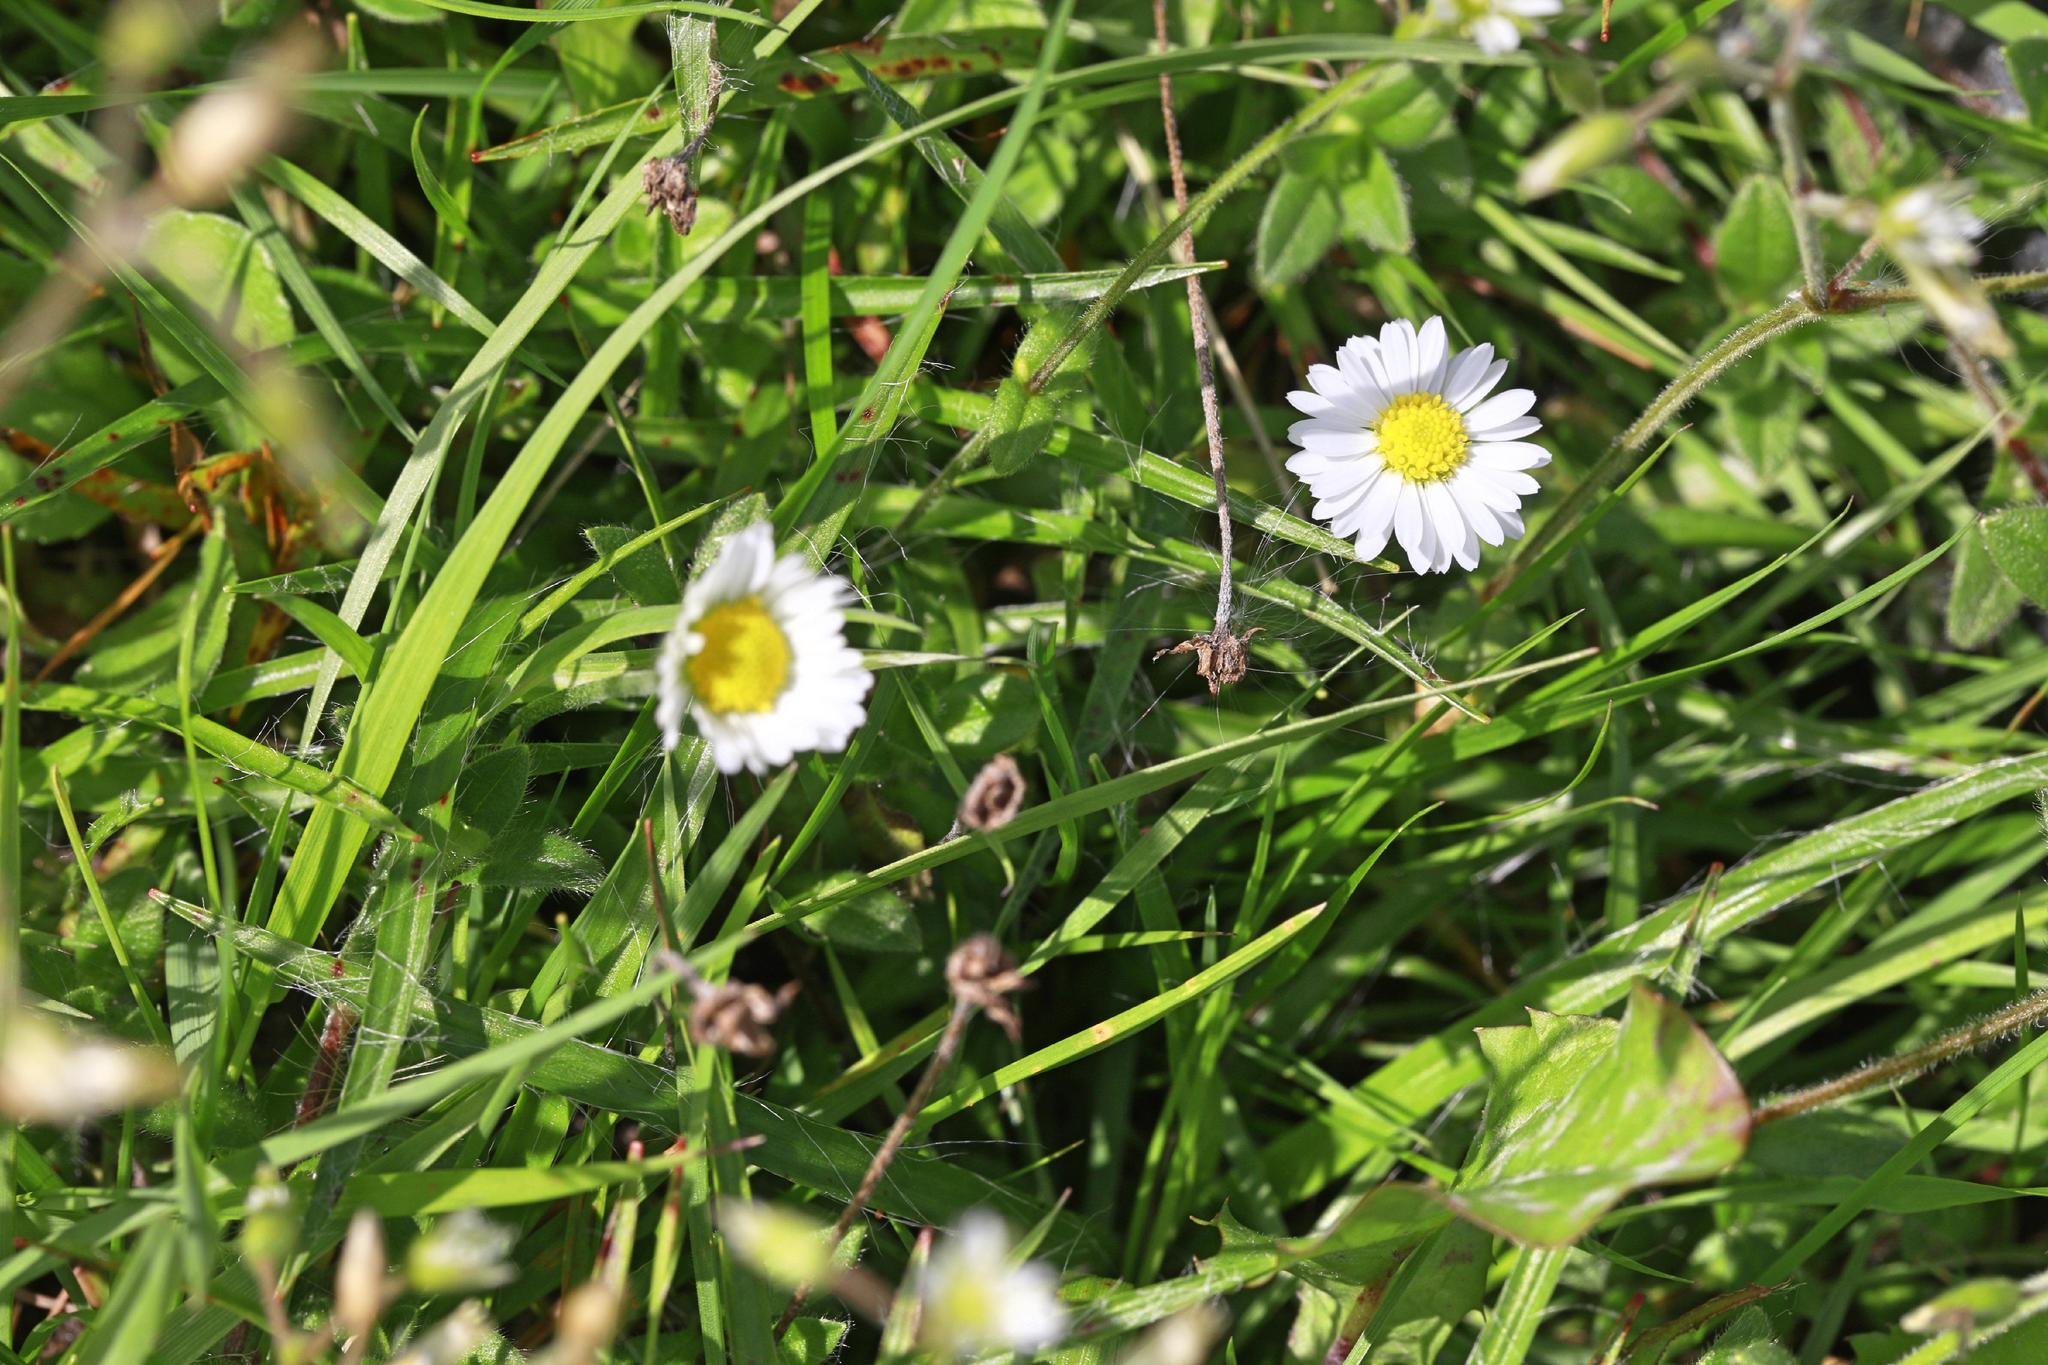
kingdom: Plantae
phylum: Tracheophyta
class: Magnoliopsida
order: Asterales
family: Asteraceae
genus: Bellis
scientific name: Bellis perennis
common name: Lawndaisy
